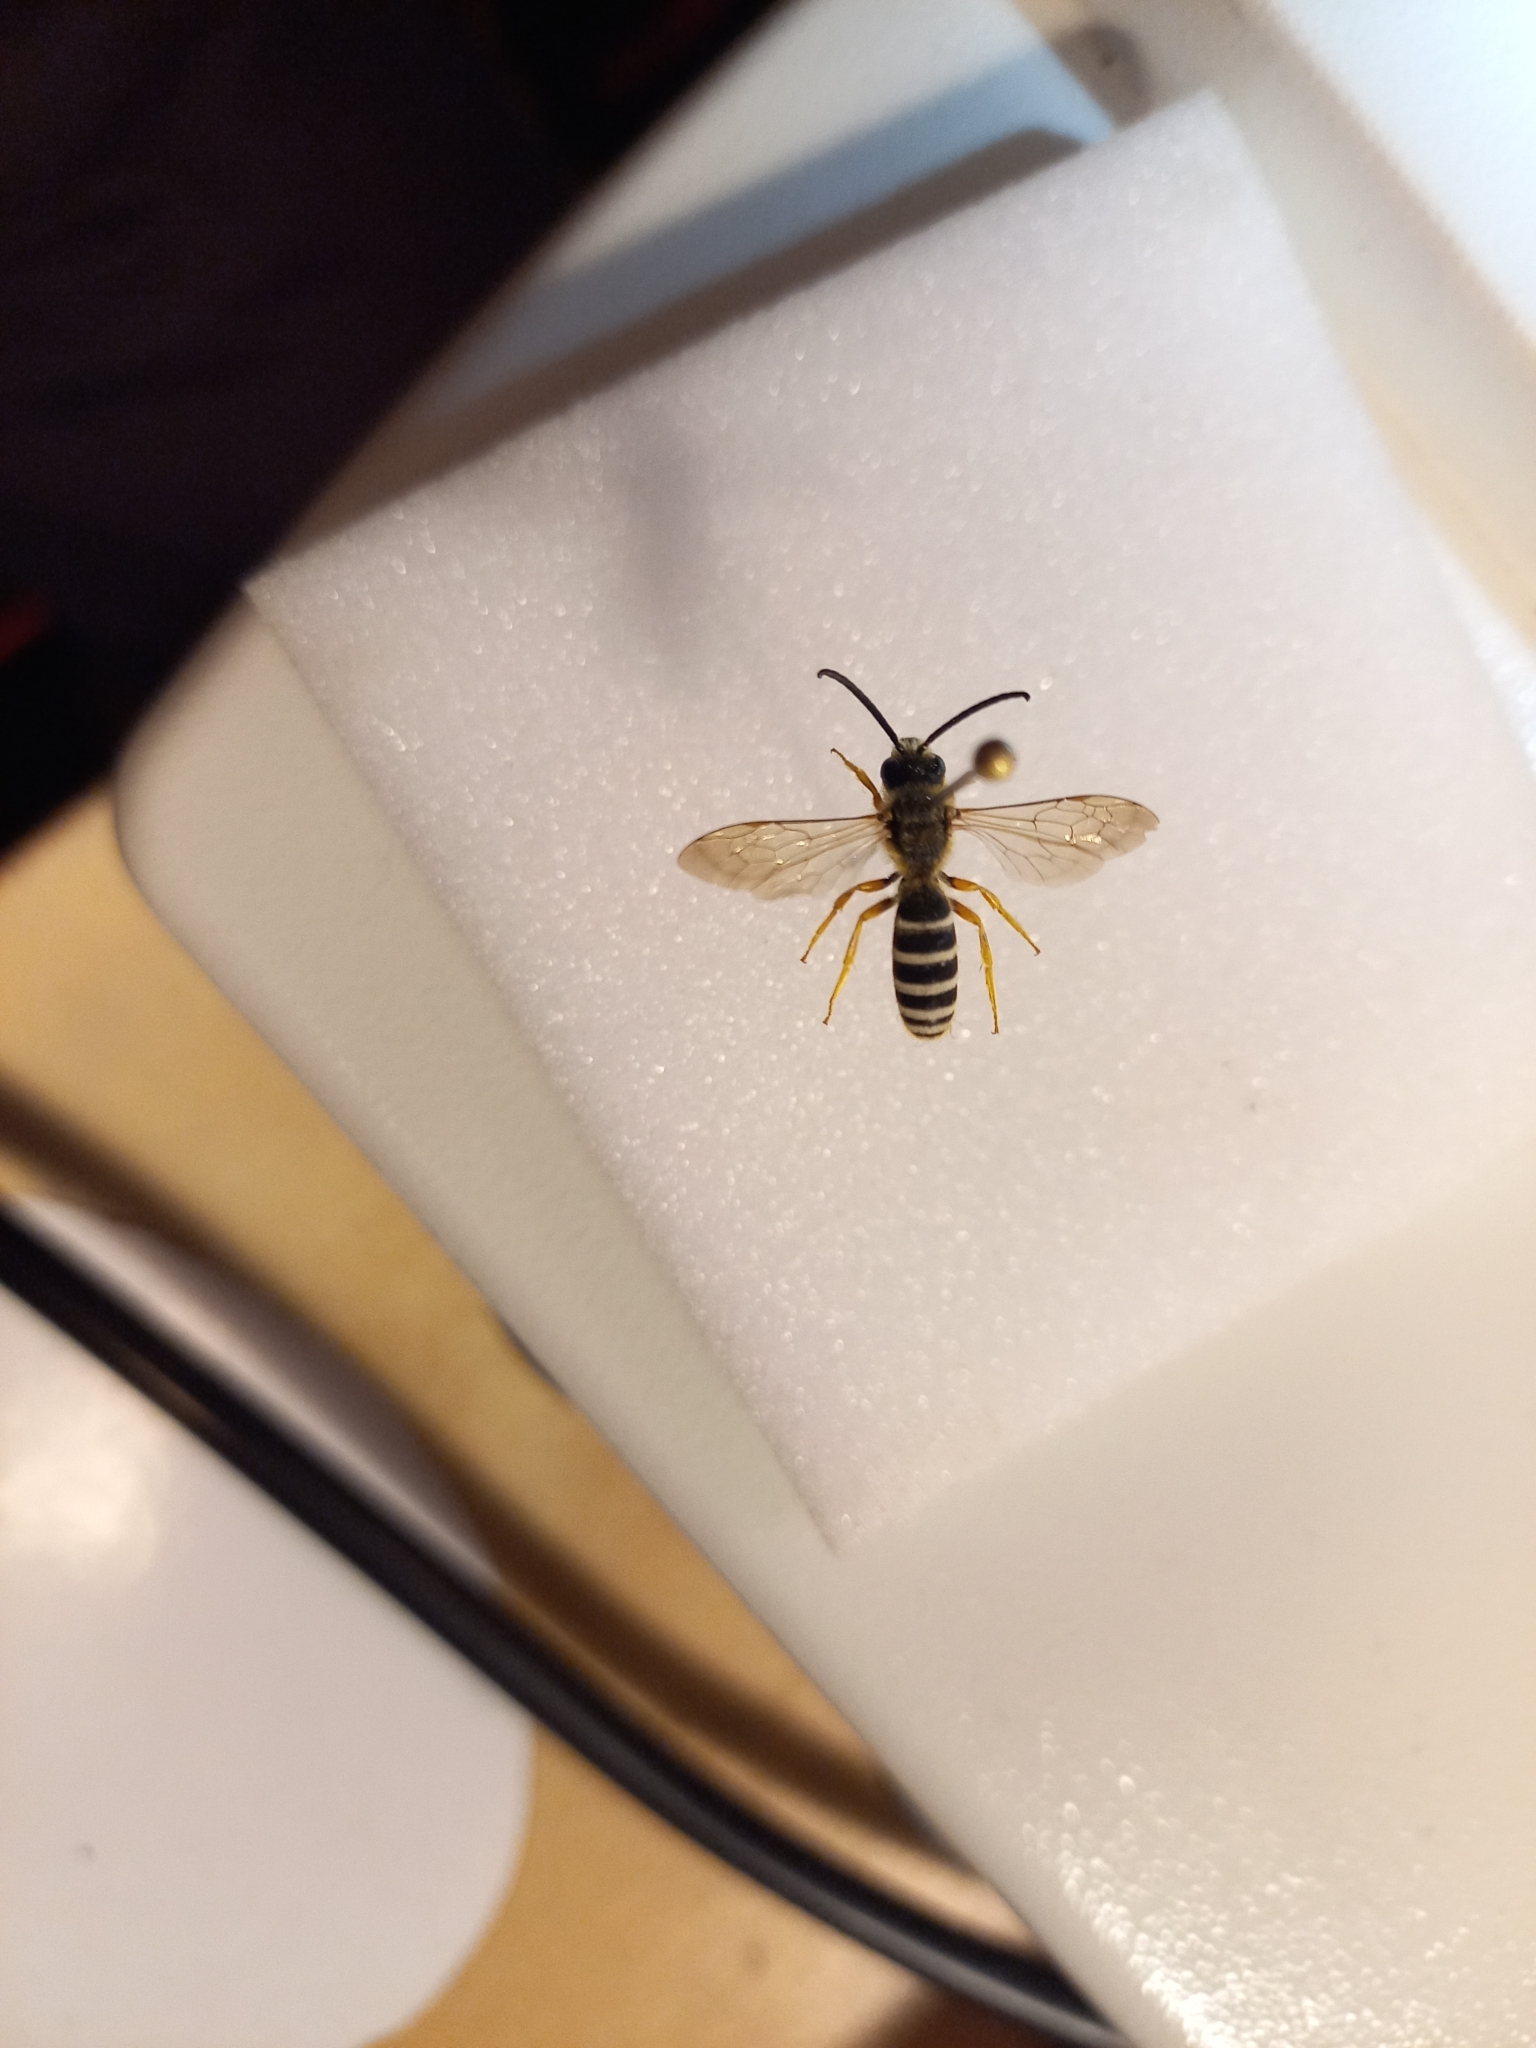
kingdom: Animalia
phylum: Arthropoda
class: Insecta
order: Hymenoptera
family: Halictidae
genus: Halictus
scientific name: Halictus scabiosae
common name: Great banded furrow bee
